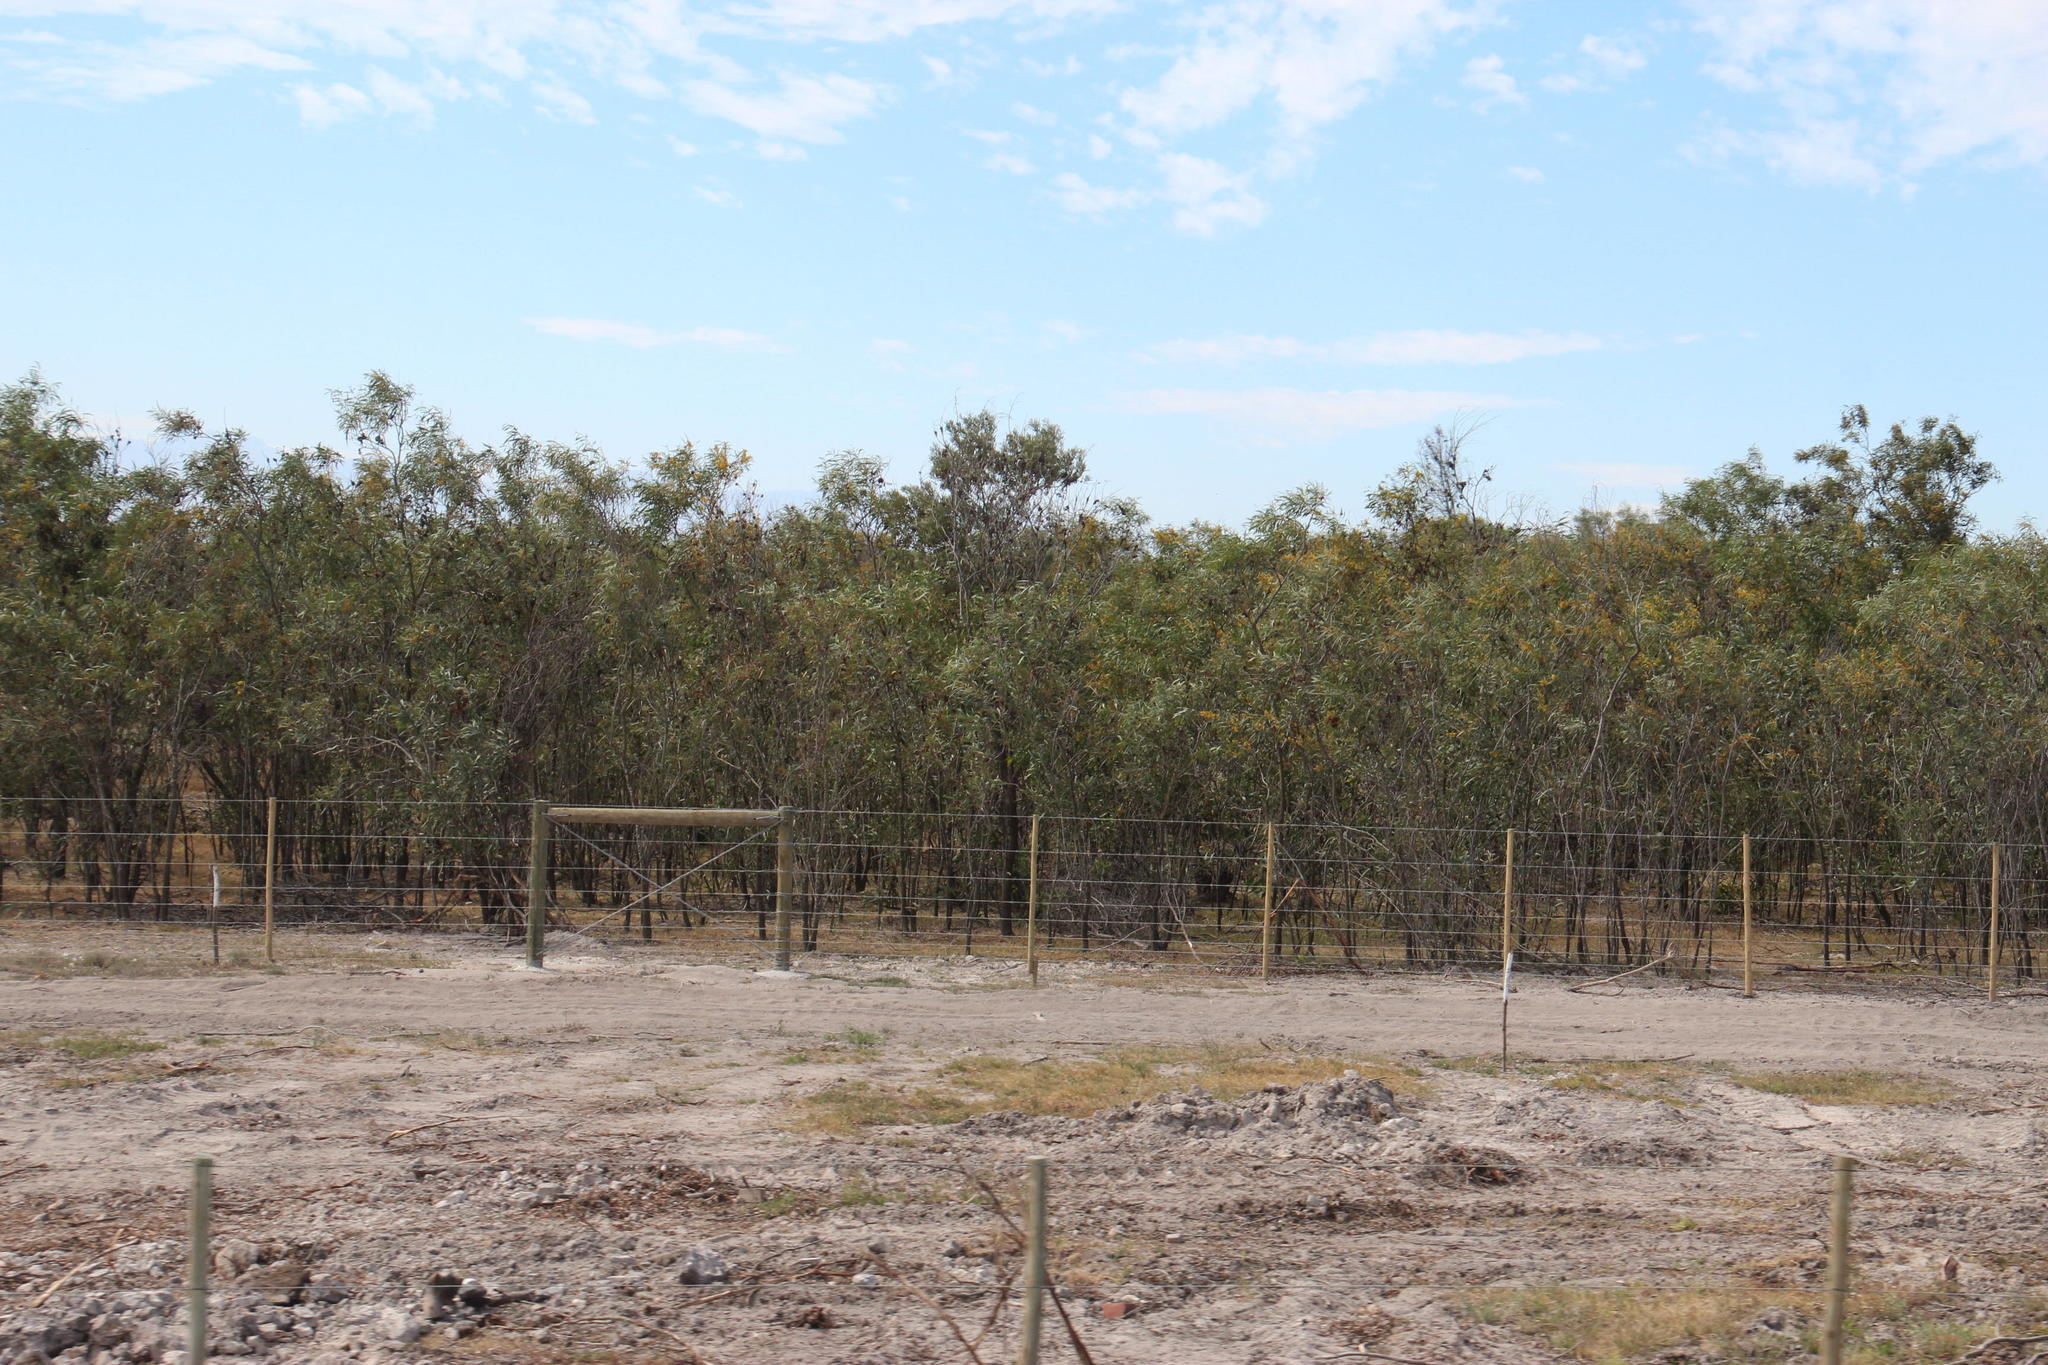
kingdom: Plantae
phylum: Tracheophyta
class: Magnoliopsida
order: Fabales
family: Fabaceae
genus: Acacia
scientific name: Acacia saligna
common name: Orange wattle
